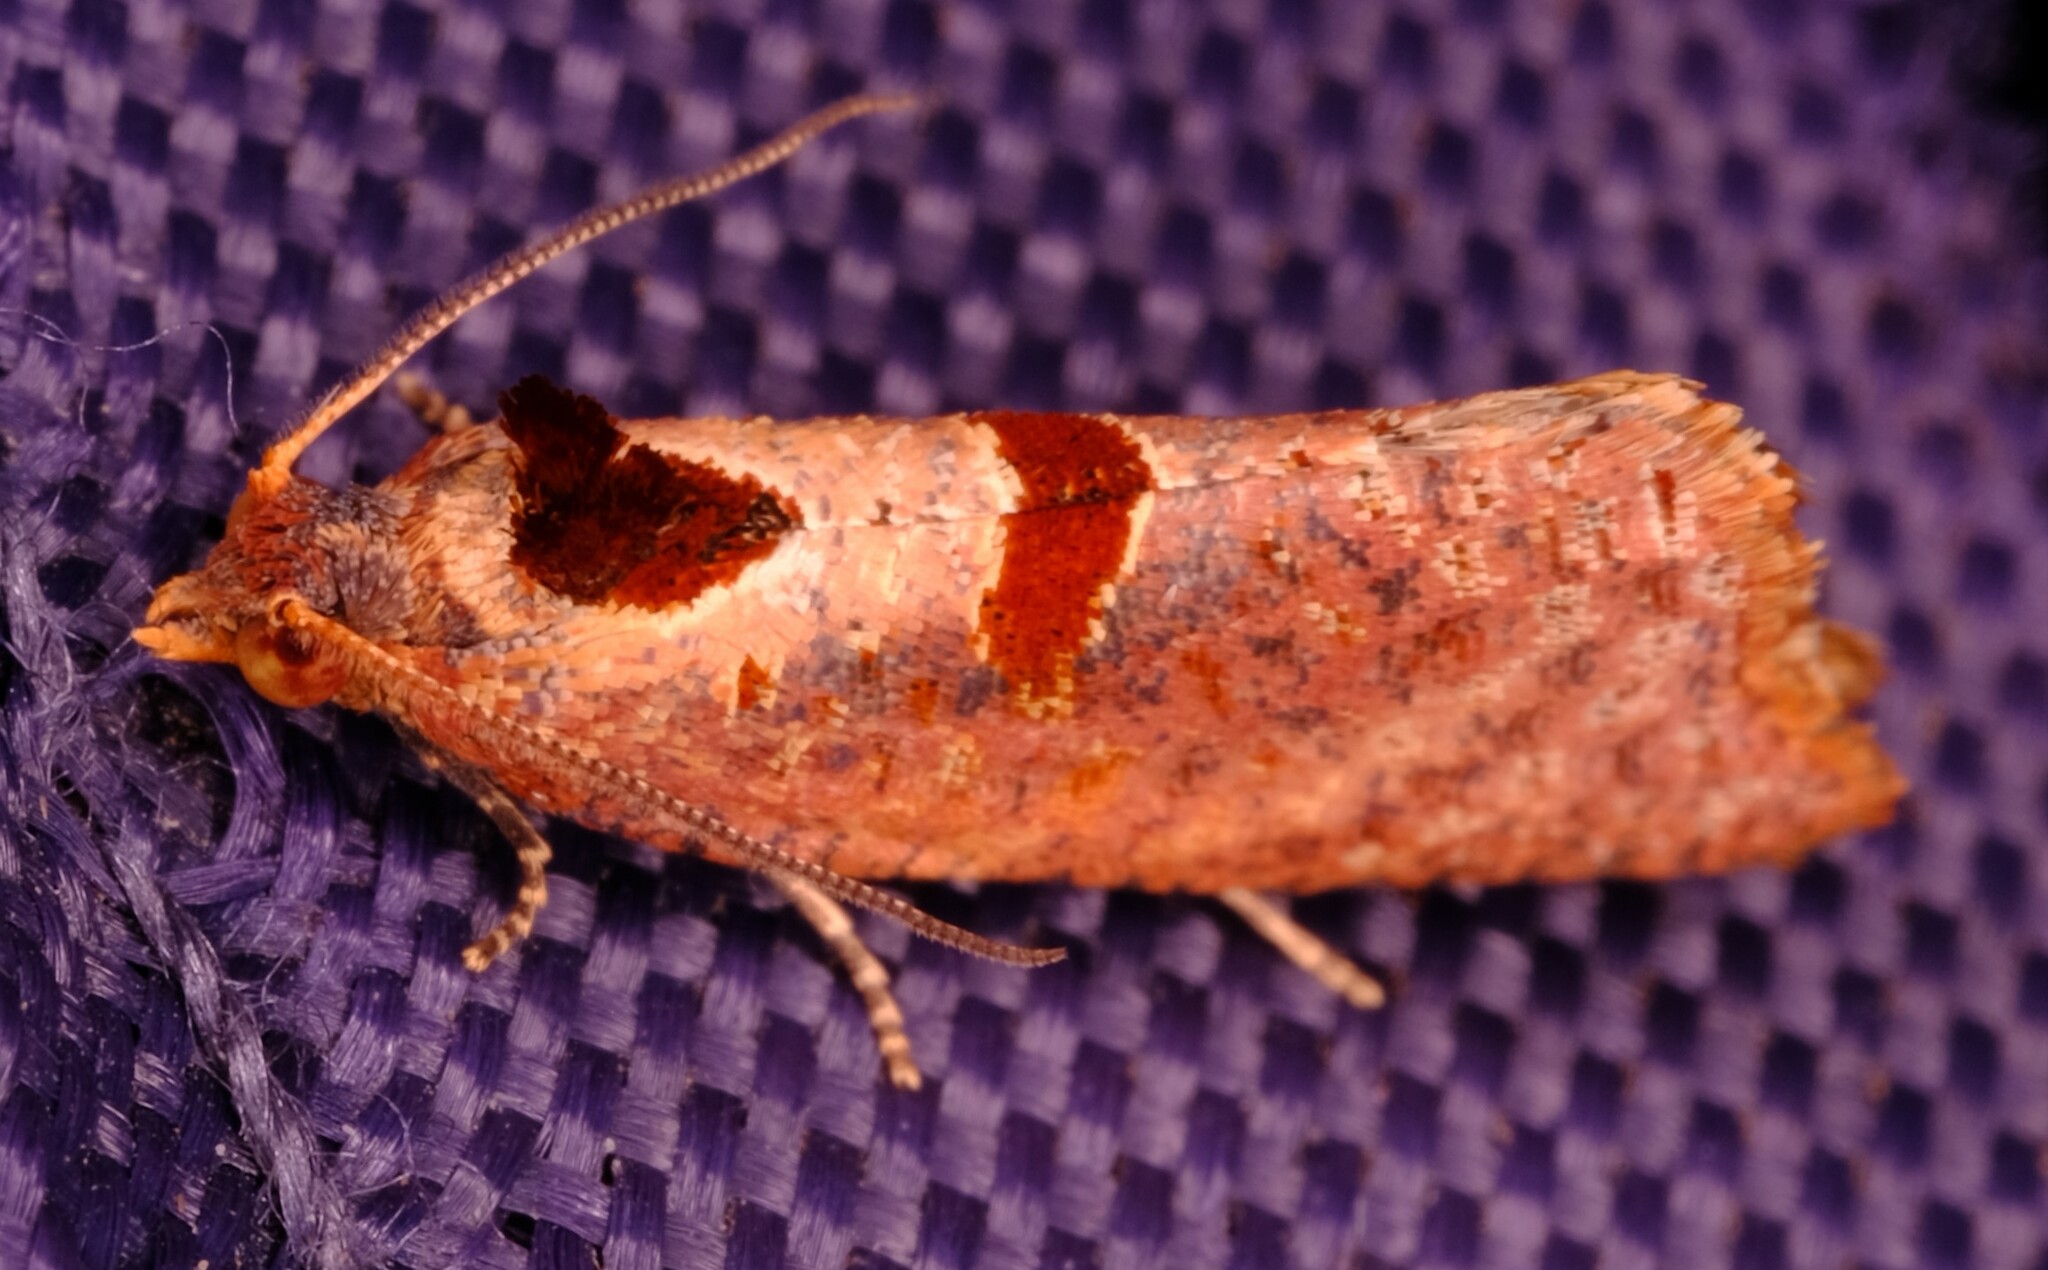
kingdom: Animalia
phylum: Arthropoda
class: Insecta
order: Lepidoptera
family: Tortricidae
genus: Glyphidoptera
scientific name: Glyphidoptera insignana
